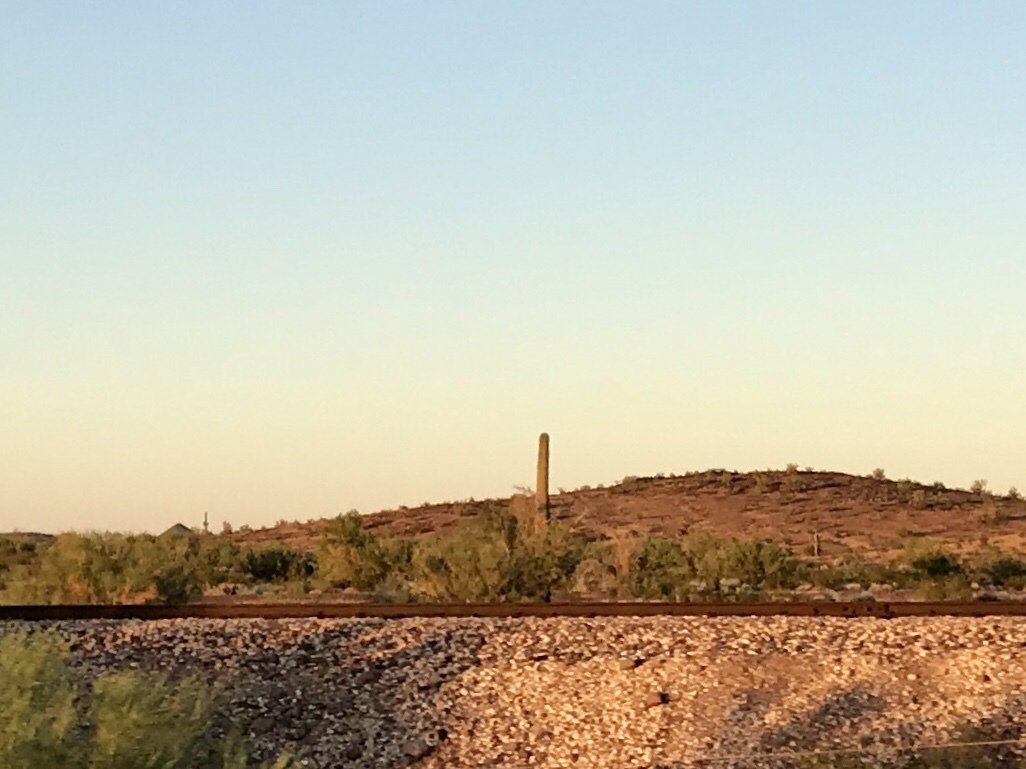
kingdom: Plantae
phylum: Tracheophyta
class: Magnoliopsida
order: Caryophyllales
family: Cactaceae
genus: Carnegiea
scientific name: Carnegiea gigantea
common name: Saguaro
